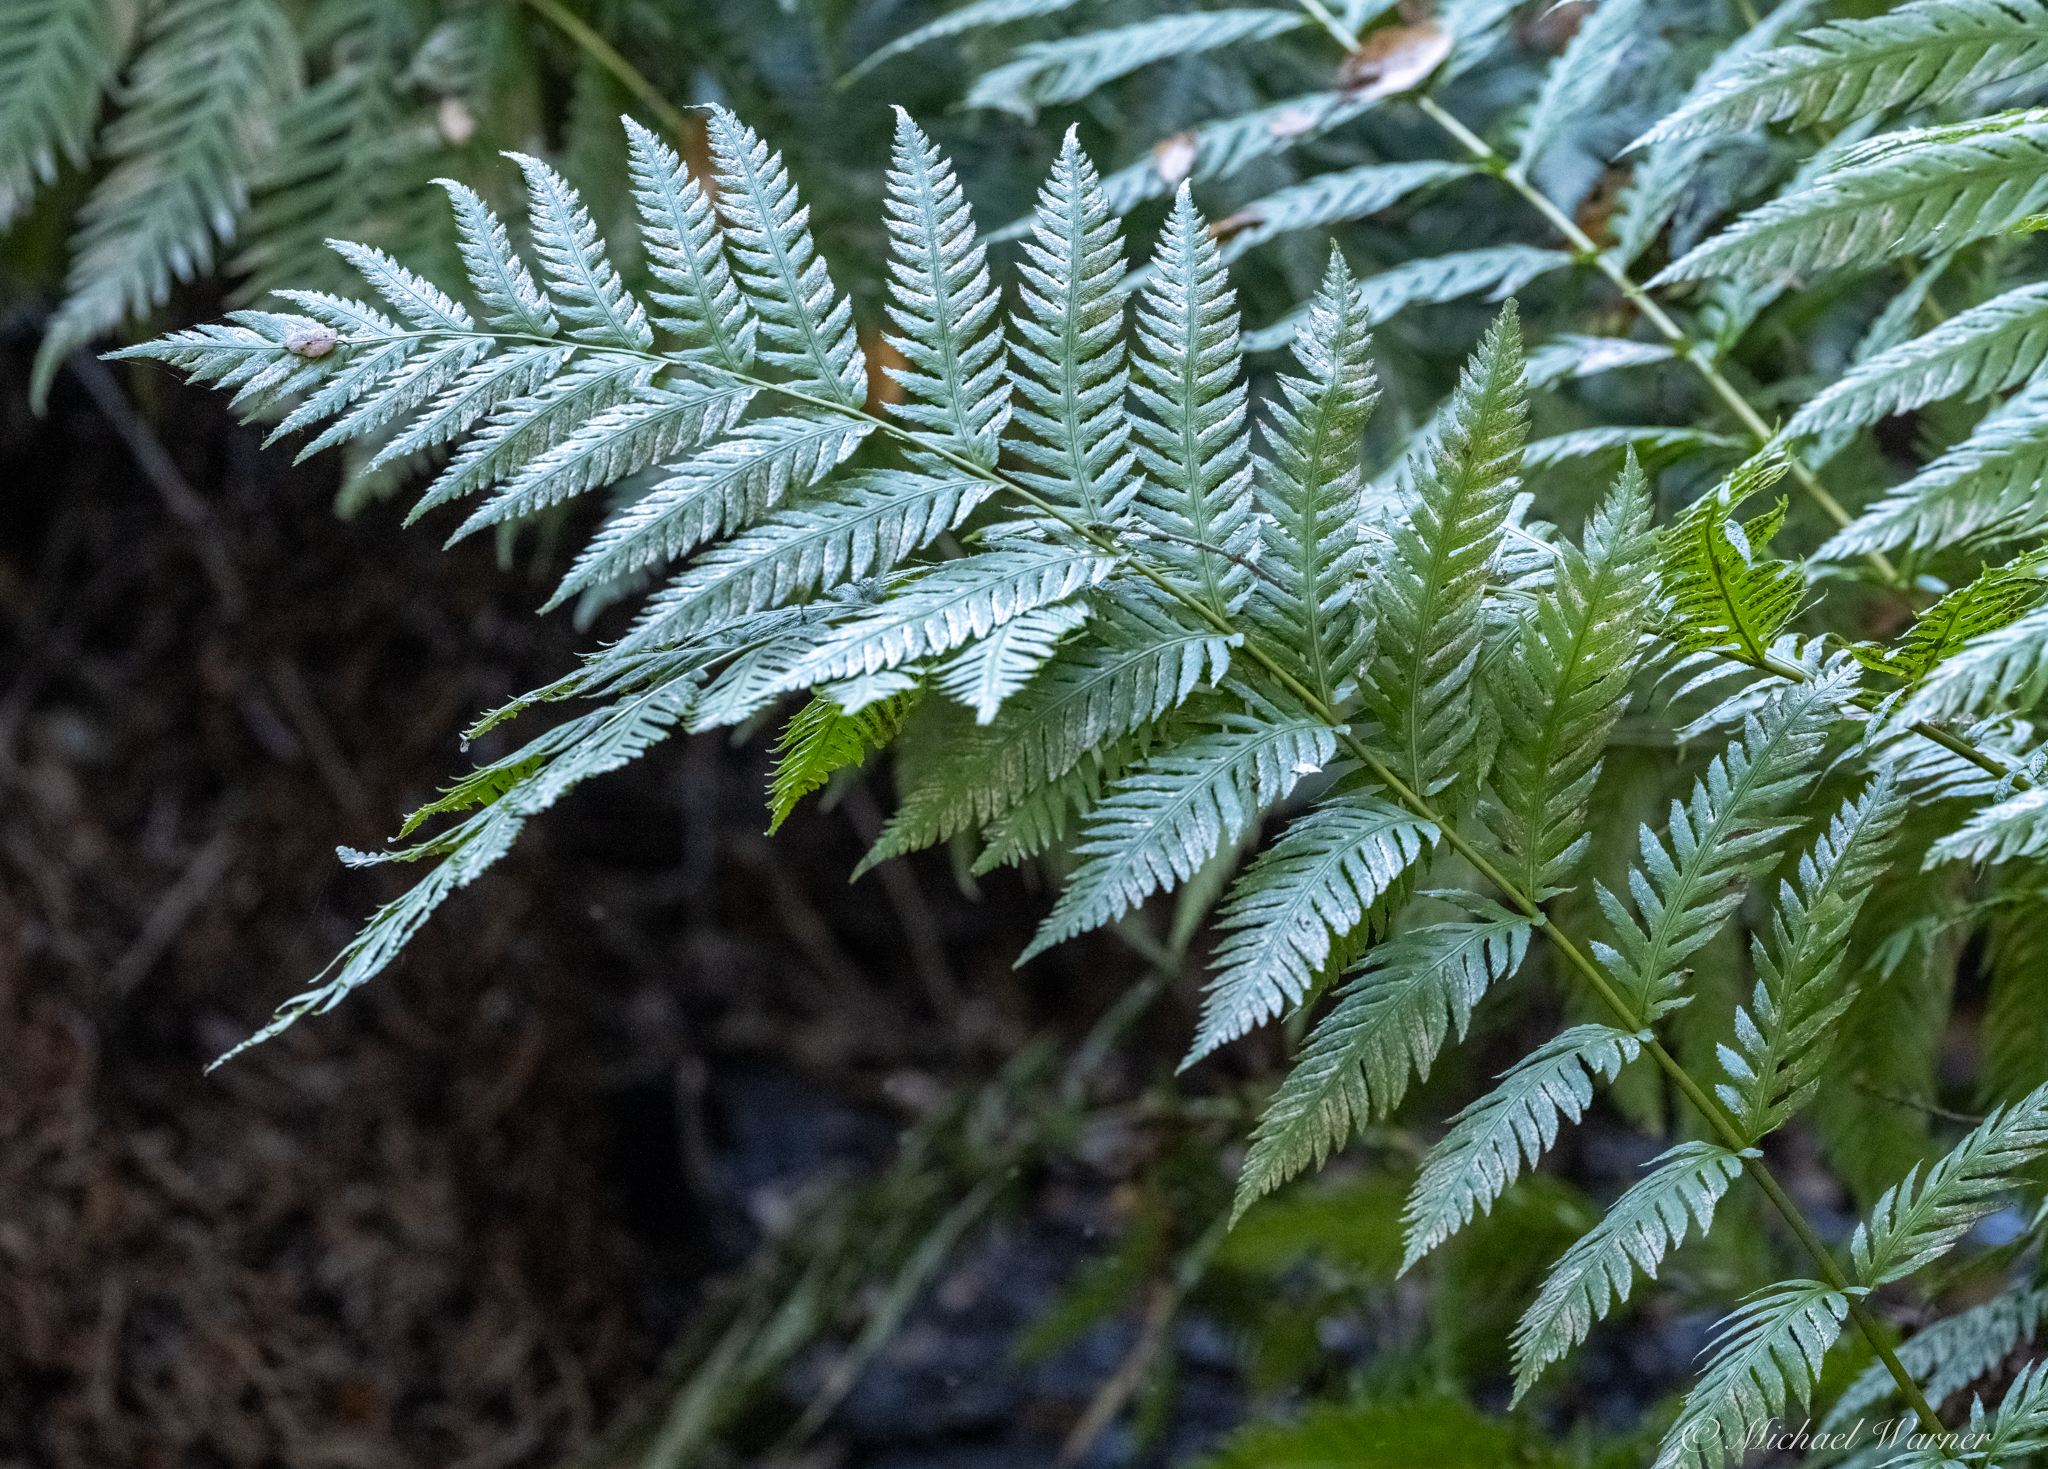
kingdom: Plantae
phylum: Tracheophyta
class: Polypodiopsida
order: Polypodiales
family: Blechnaceae
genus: Woodwardia
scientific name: Woodwardia fimbriata
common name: Giant chain fern
